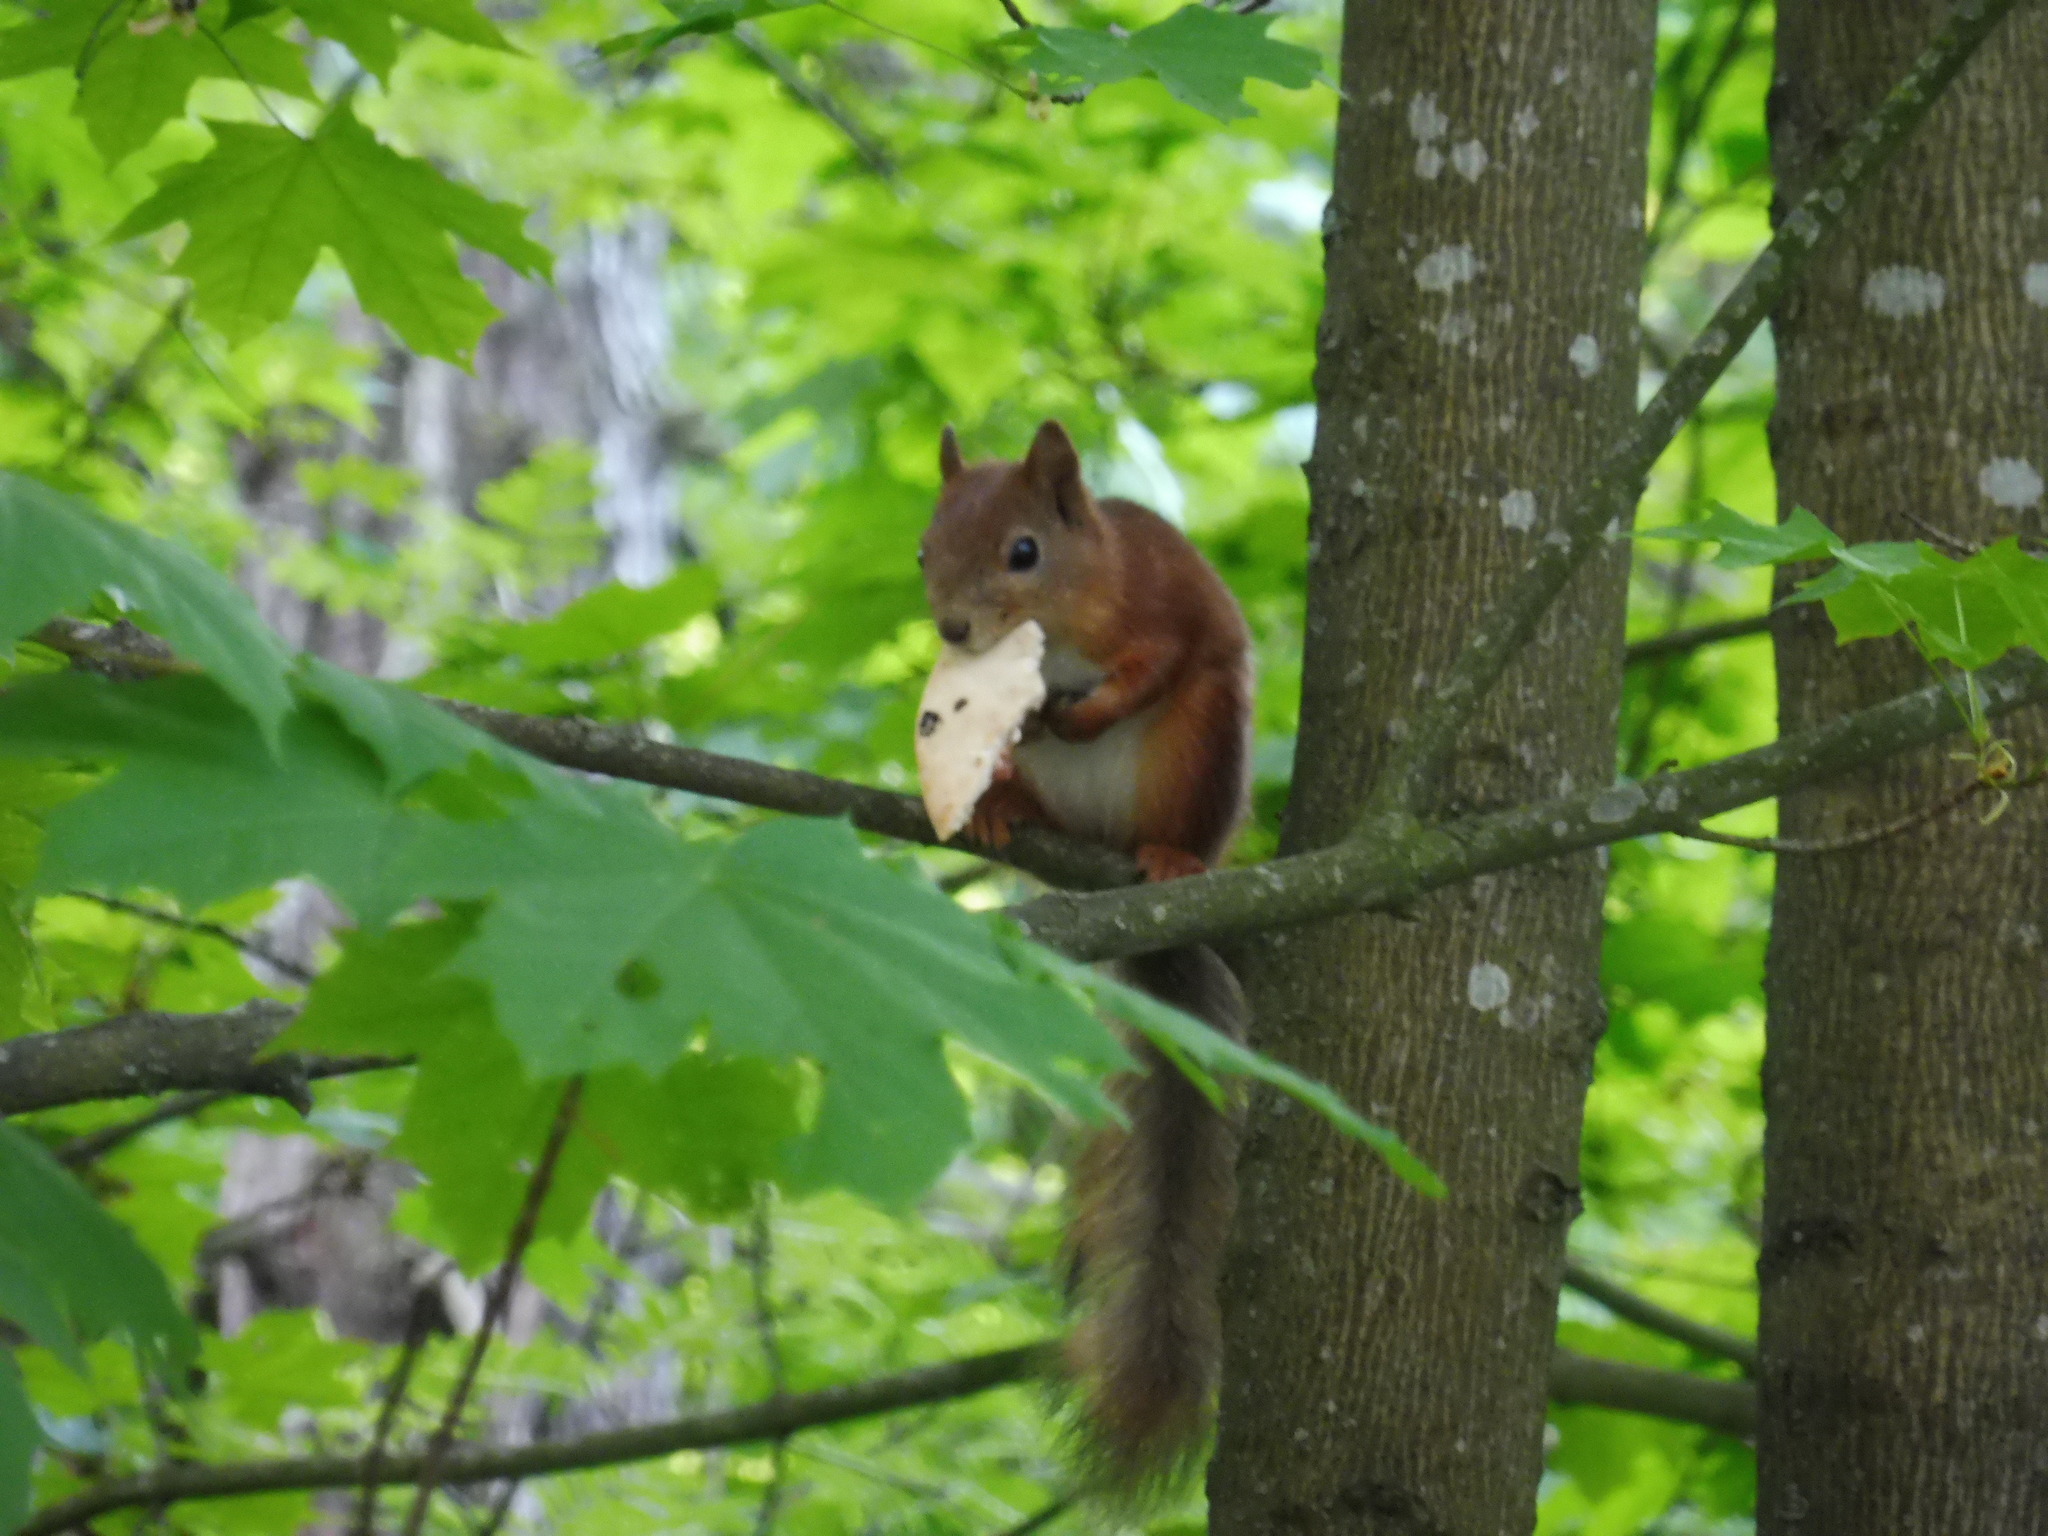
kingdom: Animalia
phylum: Chordata
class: Mammalia
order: Rodentia
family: Sciuridae
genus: Sciurus
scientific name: Sciurus vulgaris
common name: Eurasian red squirrel
